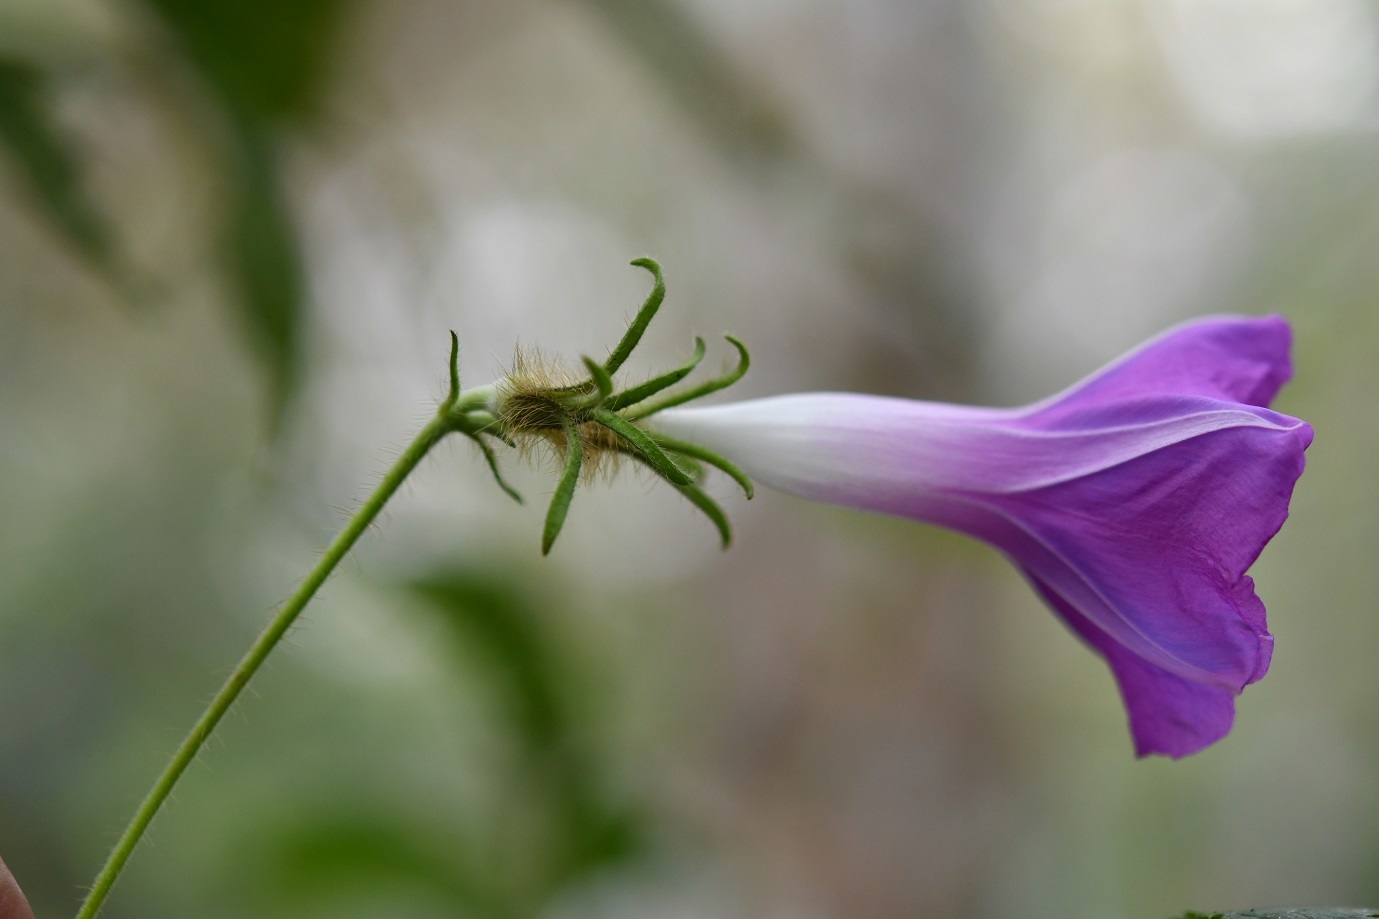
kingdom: Plantae
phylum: Tracheophyta
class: Magnoliopsida
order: Solanales
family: Convolvulaceae
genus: Ipomoea
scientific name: Ipomoea nil
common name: Japanese morning-glory
